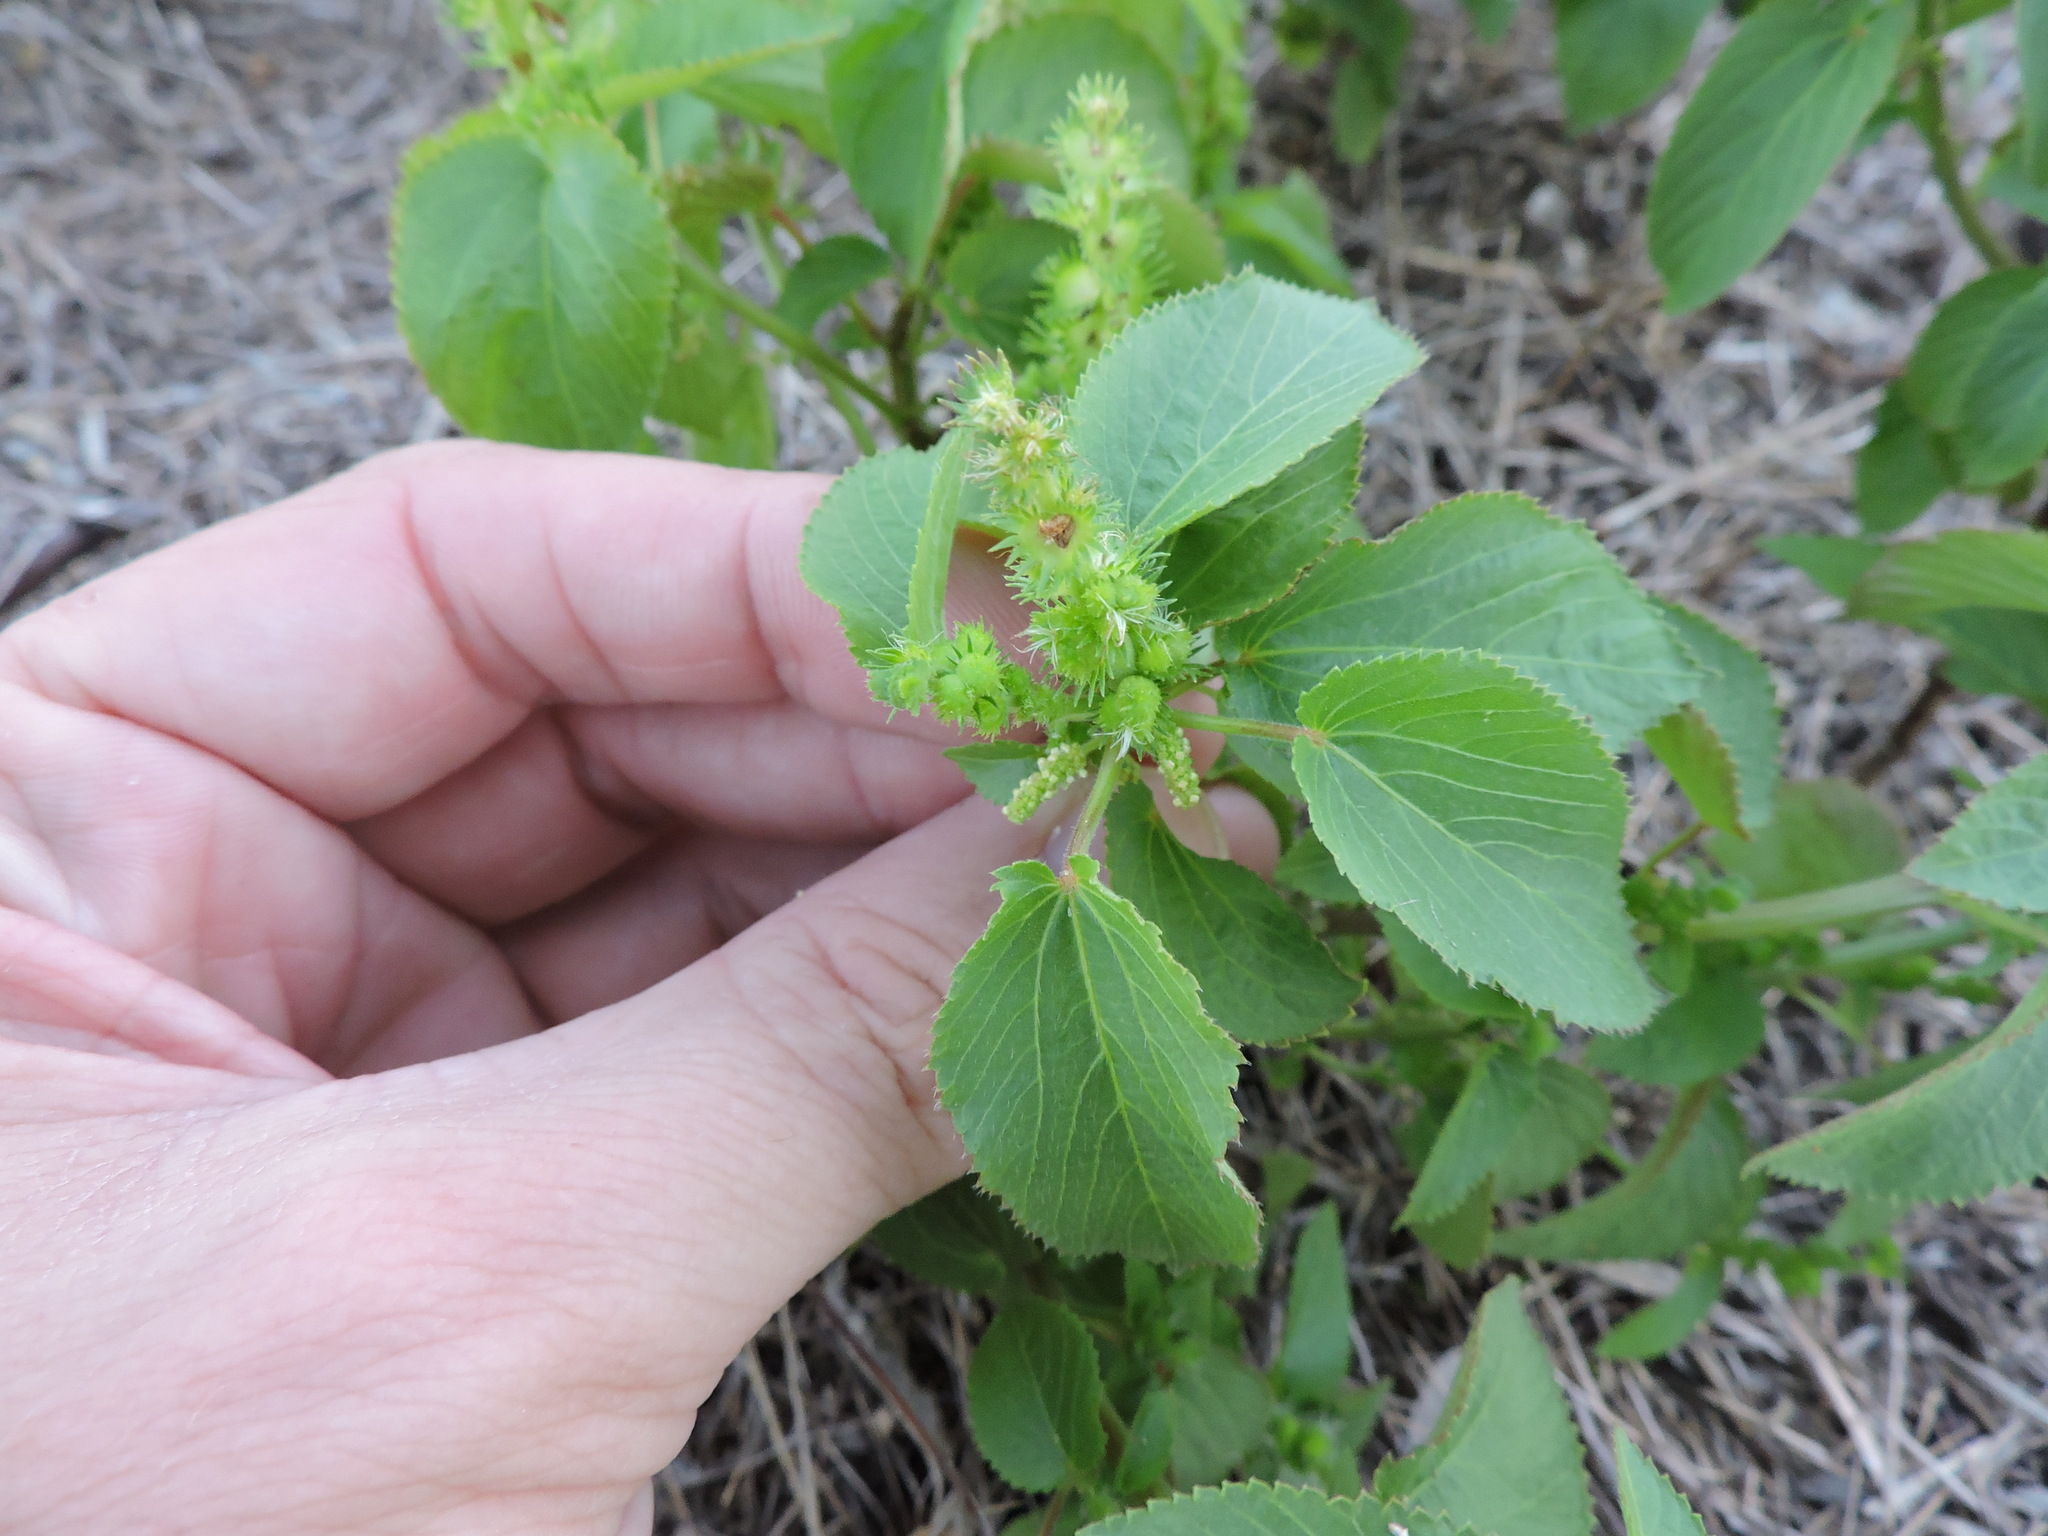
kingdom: Plantae
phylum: Tracheophyta
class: Magnoliopsida
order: Malpighiales
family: Euphorbiaceae
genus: Acalypha
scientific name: Acalypha ostryifolia
